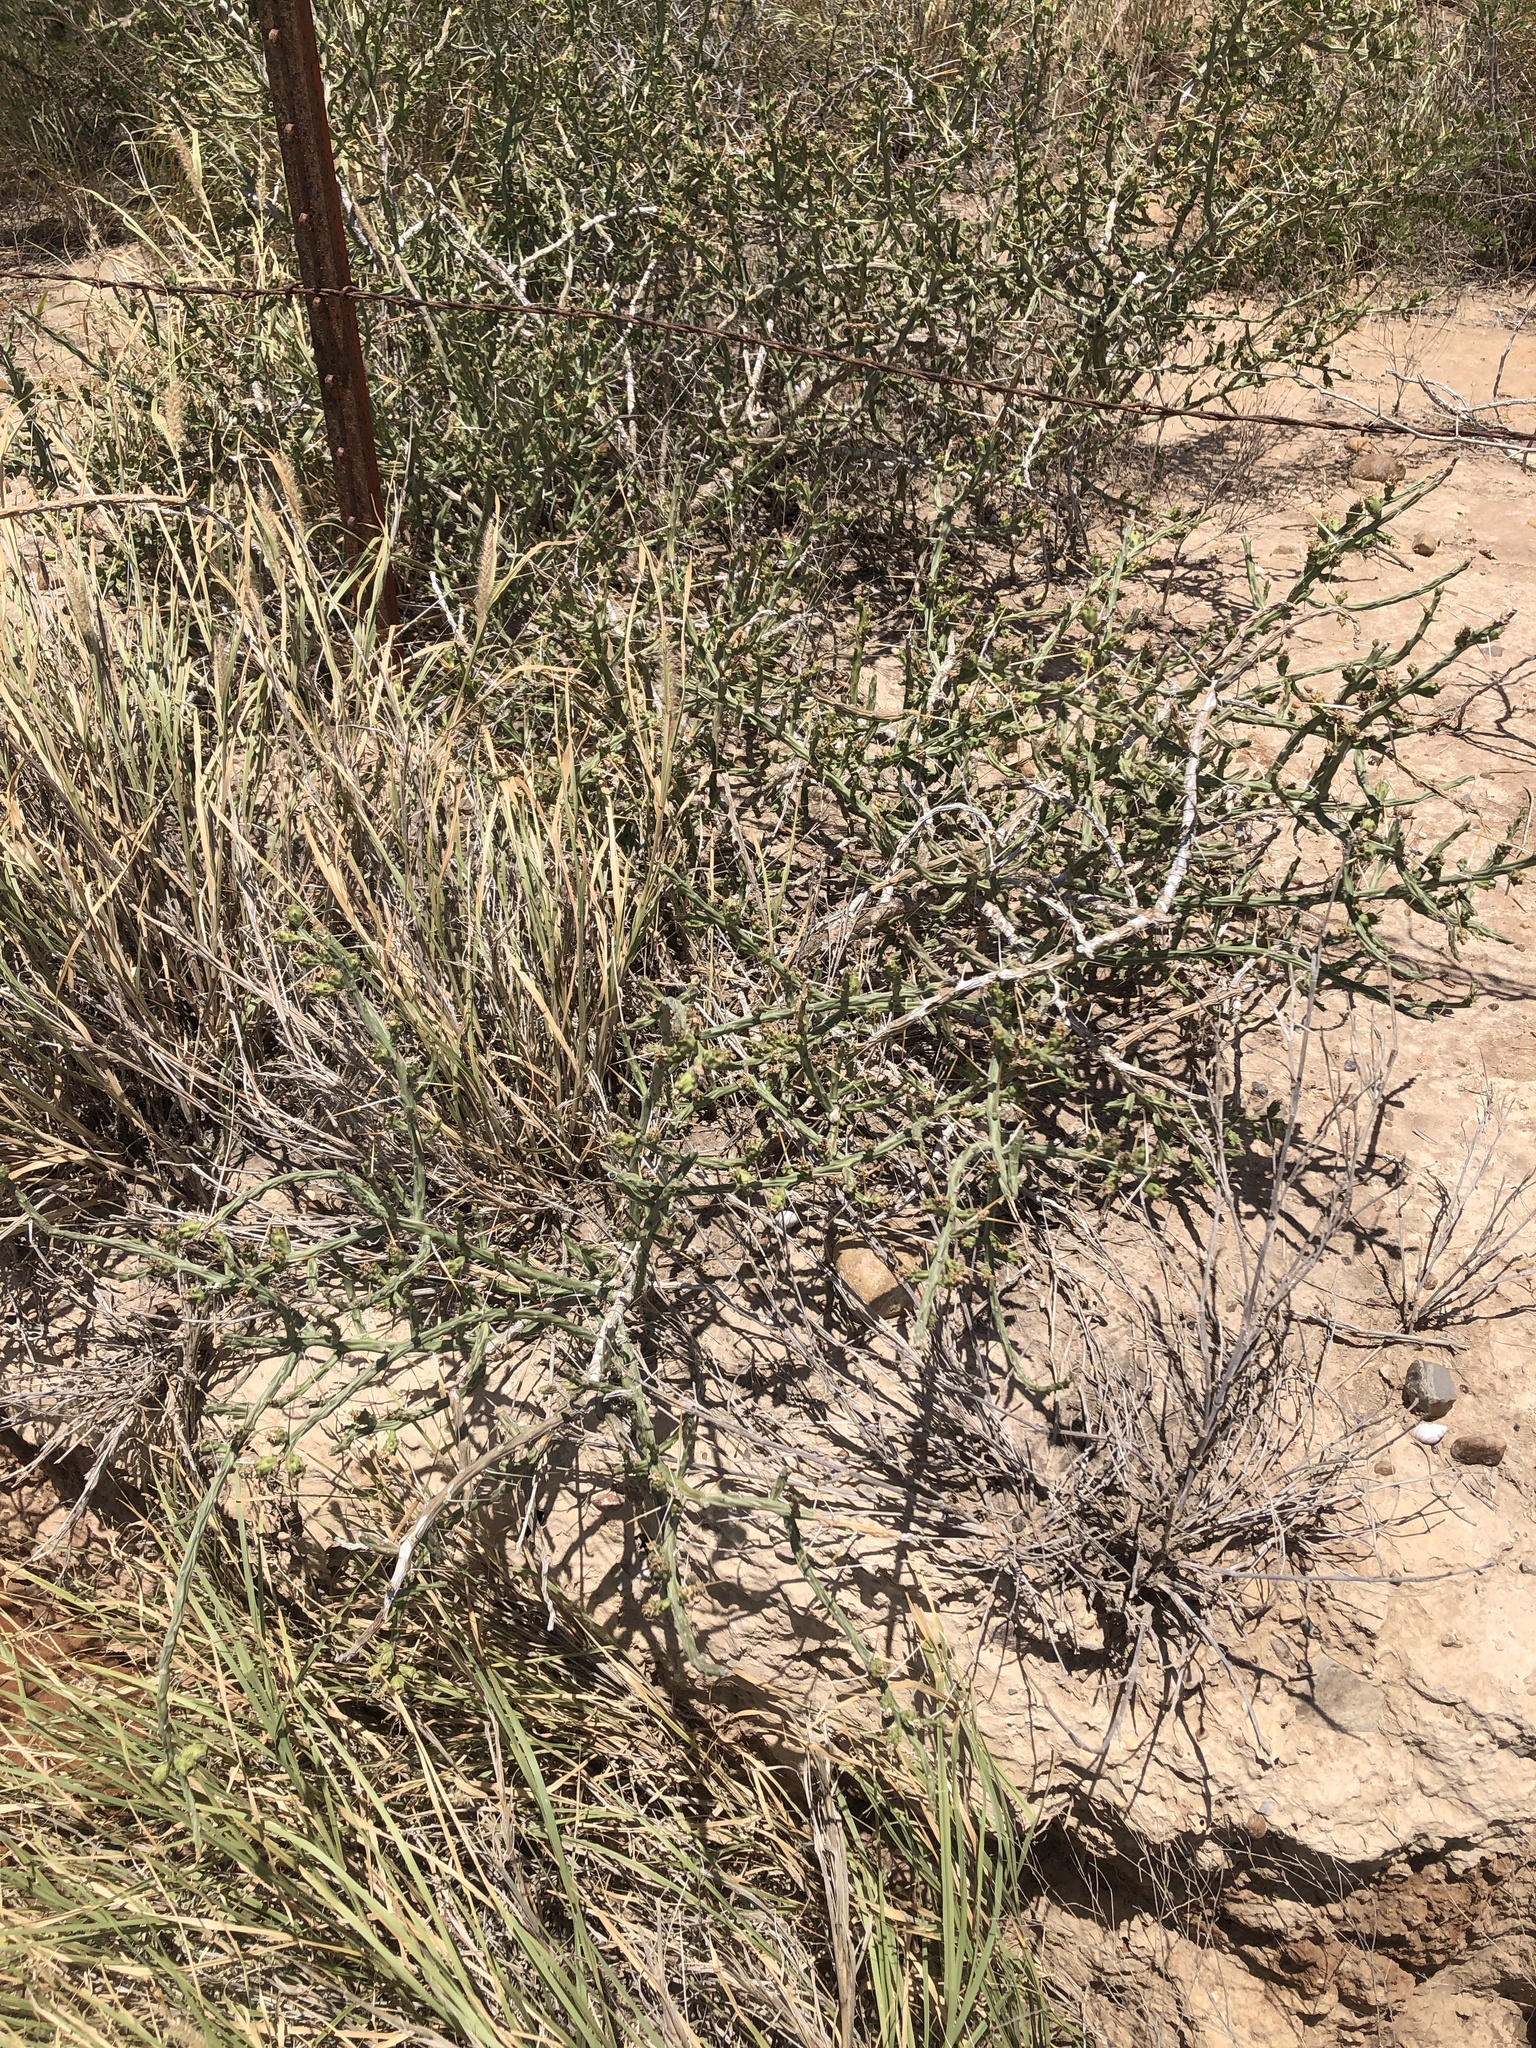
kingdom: Plantae
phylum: Tracheophyta
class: Magnoliopsida
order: Caryophyllales
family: Cactaceae
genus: Cylindropuntia
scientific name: Cylindropuntia leptocaulis
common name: Christmas cactus
